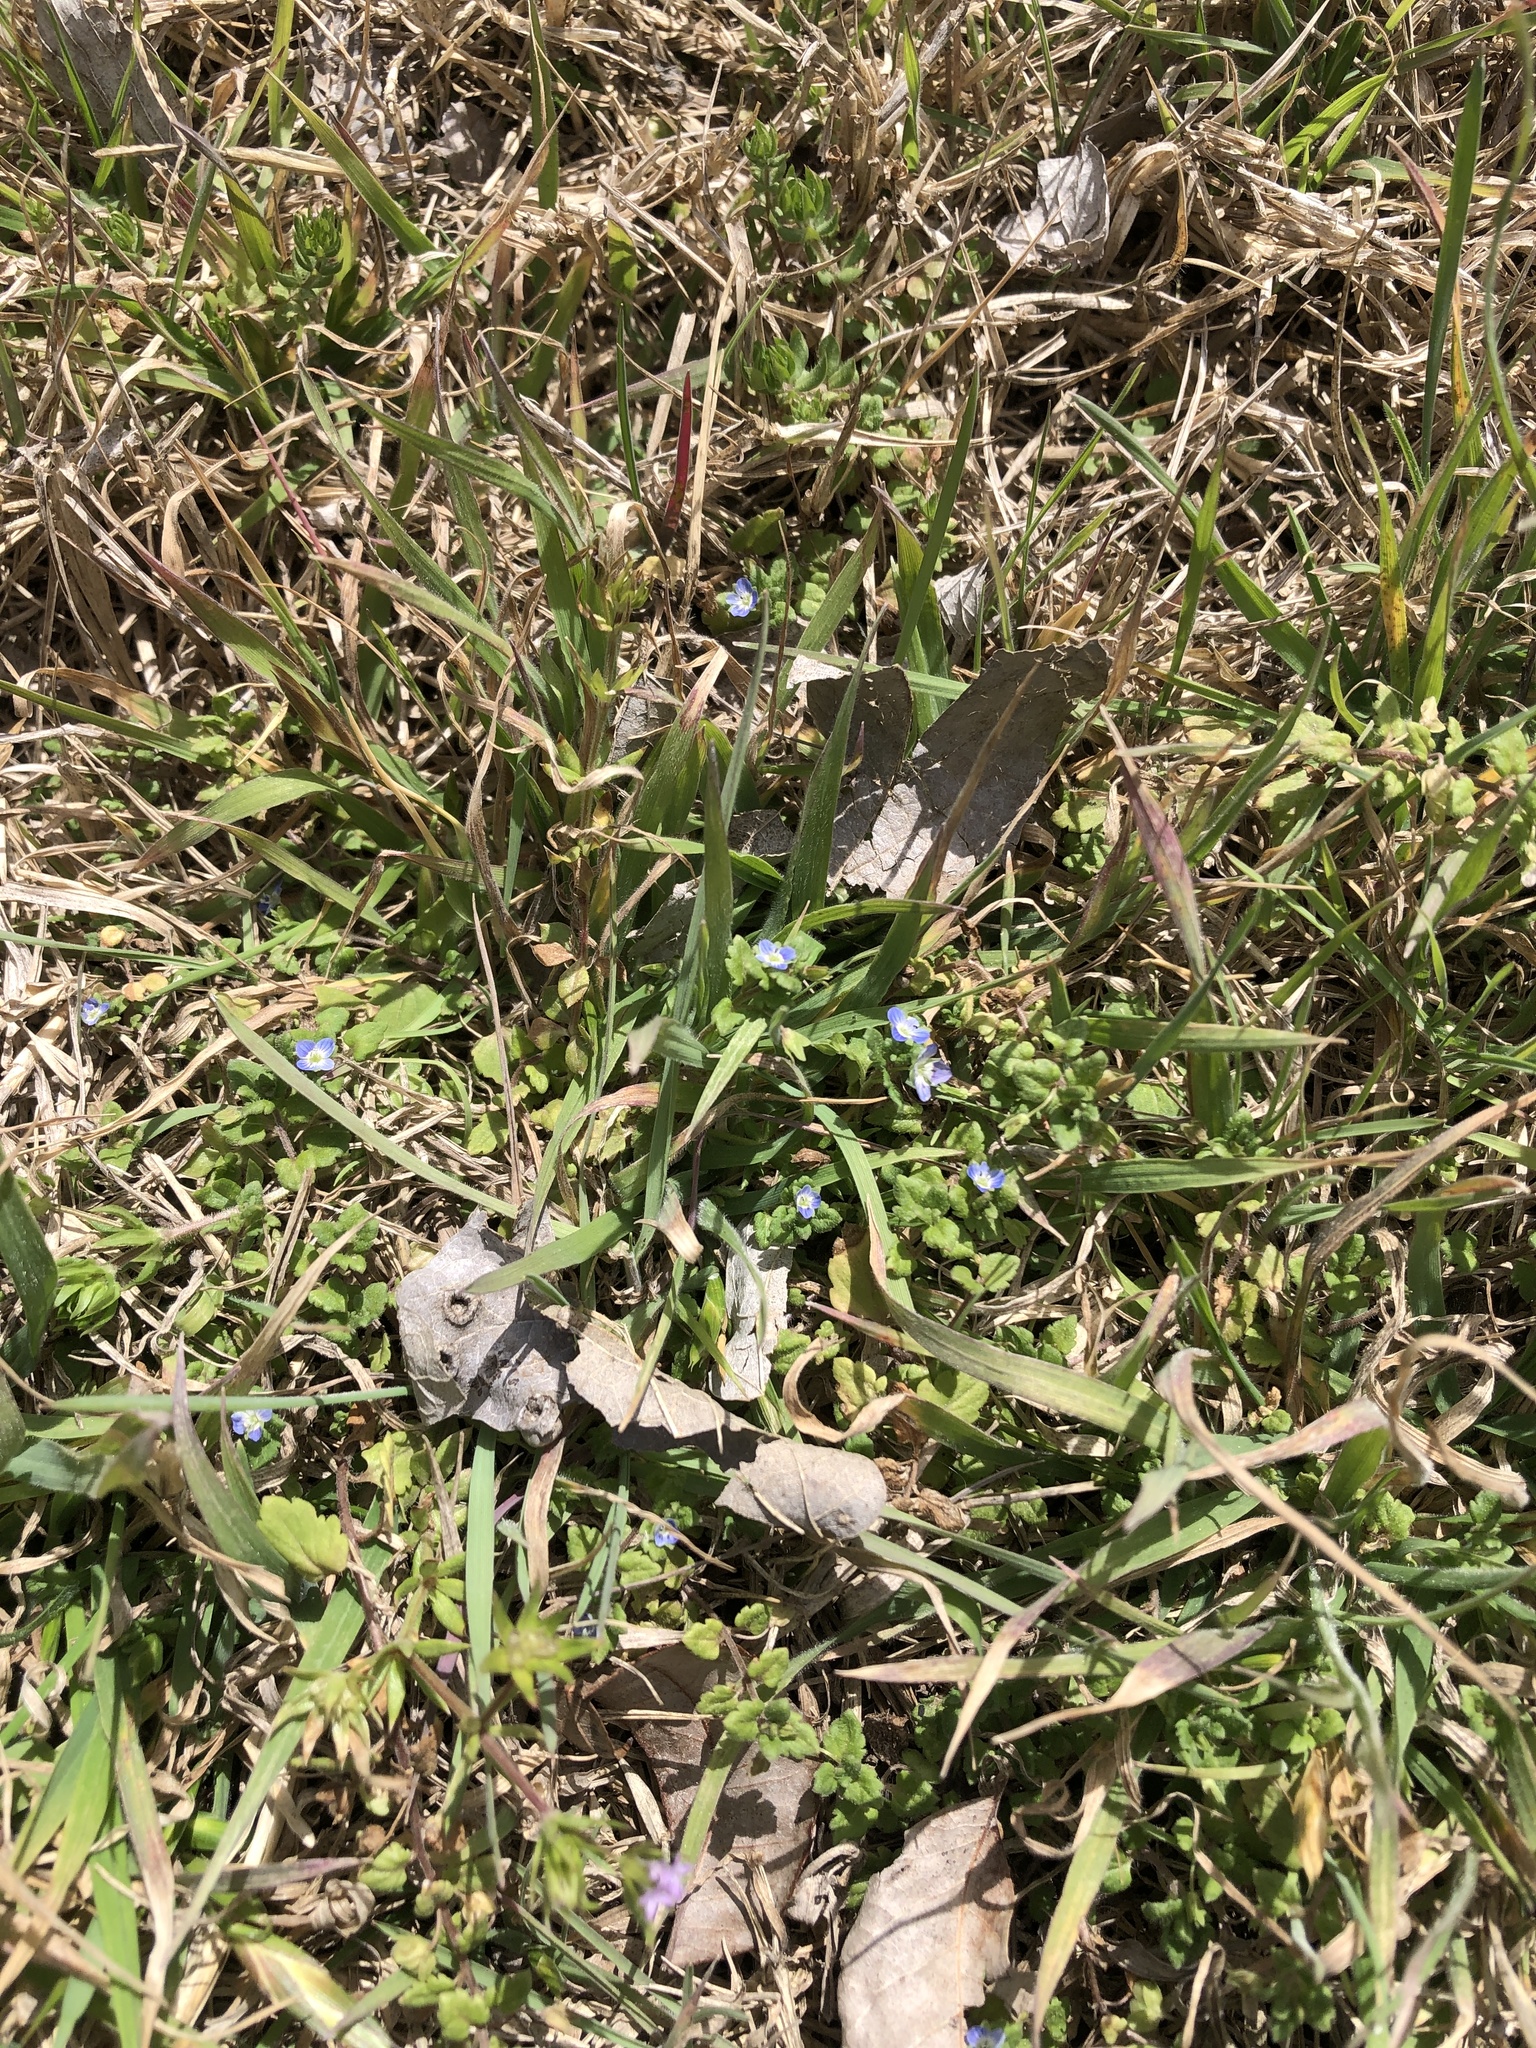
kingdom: Plantae
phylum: Tracheophyta
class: Magnoliopsida
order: Lamiales
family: Plantaginaceae
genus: Veronica
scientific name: Veronica polita
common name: Grey field-speedwell
